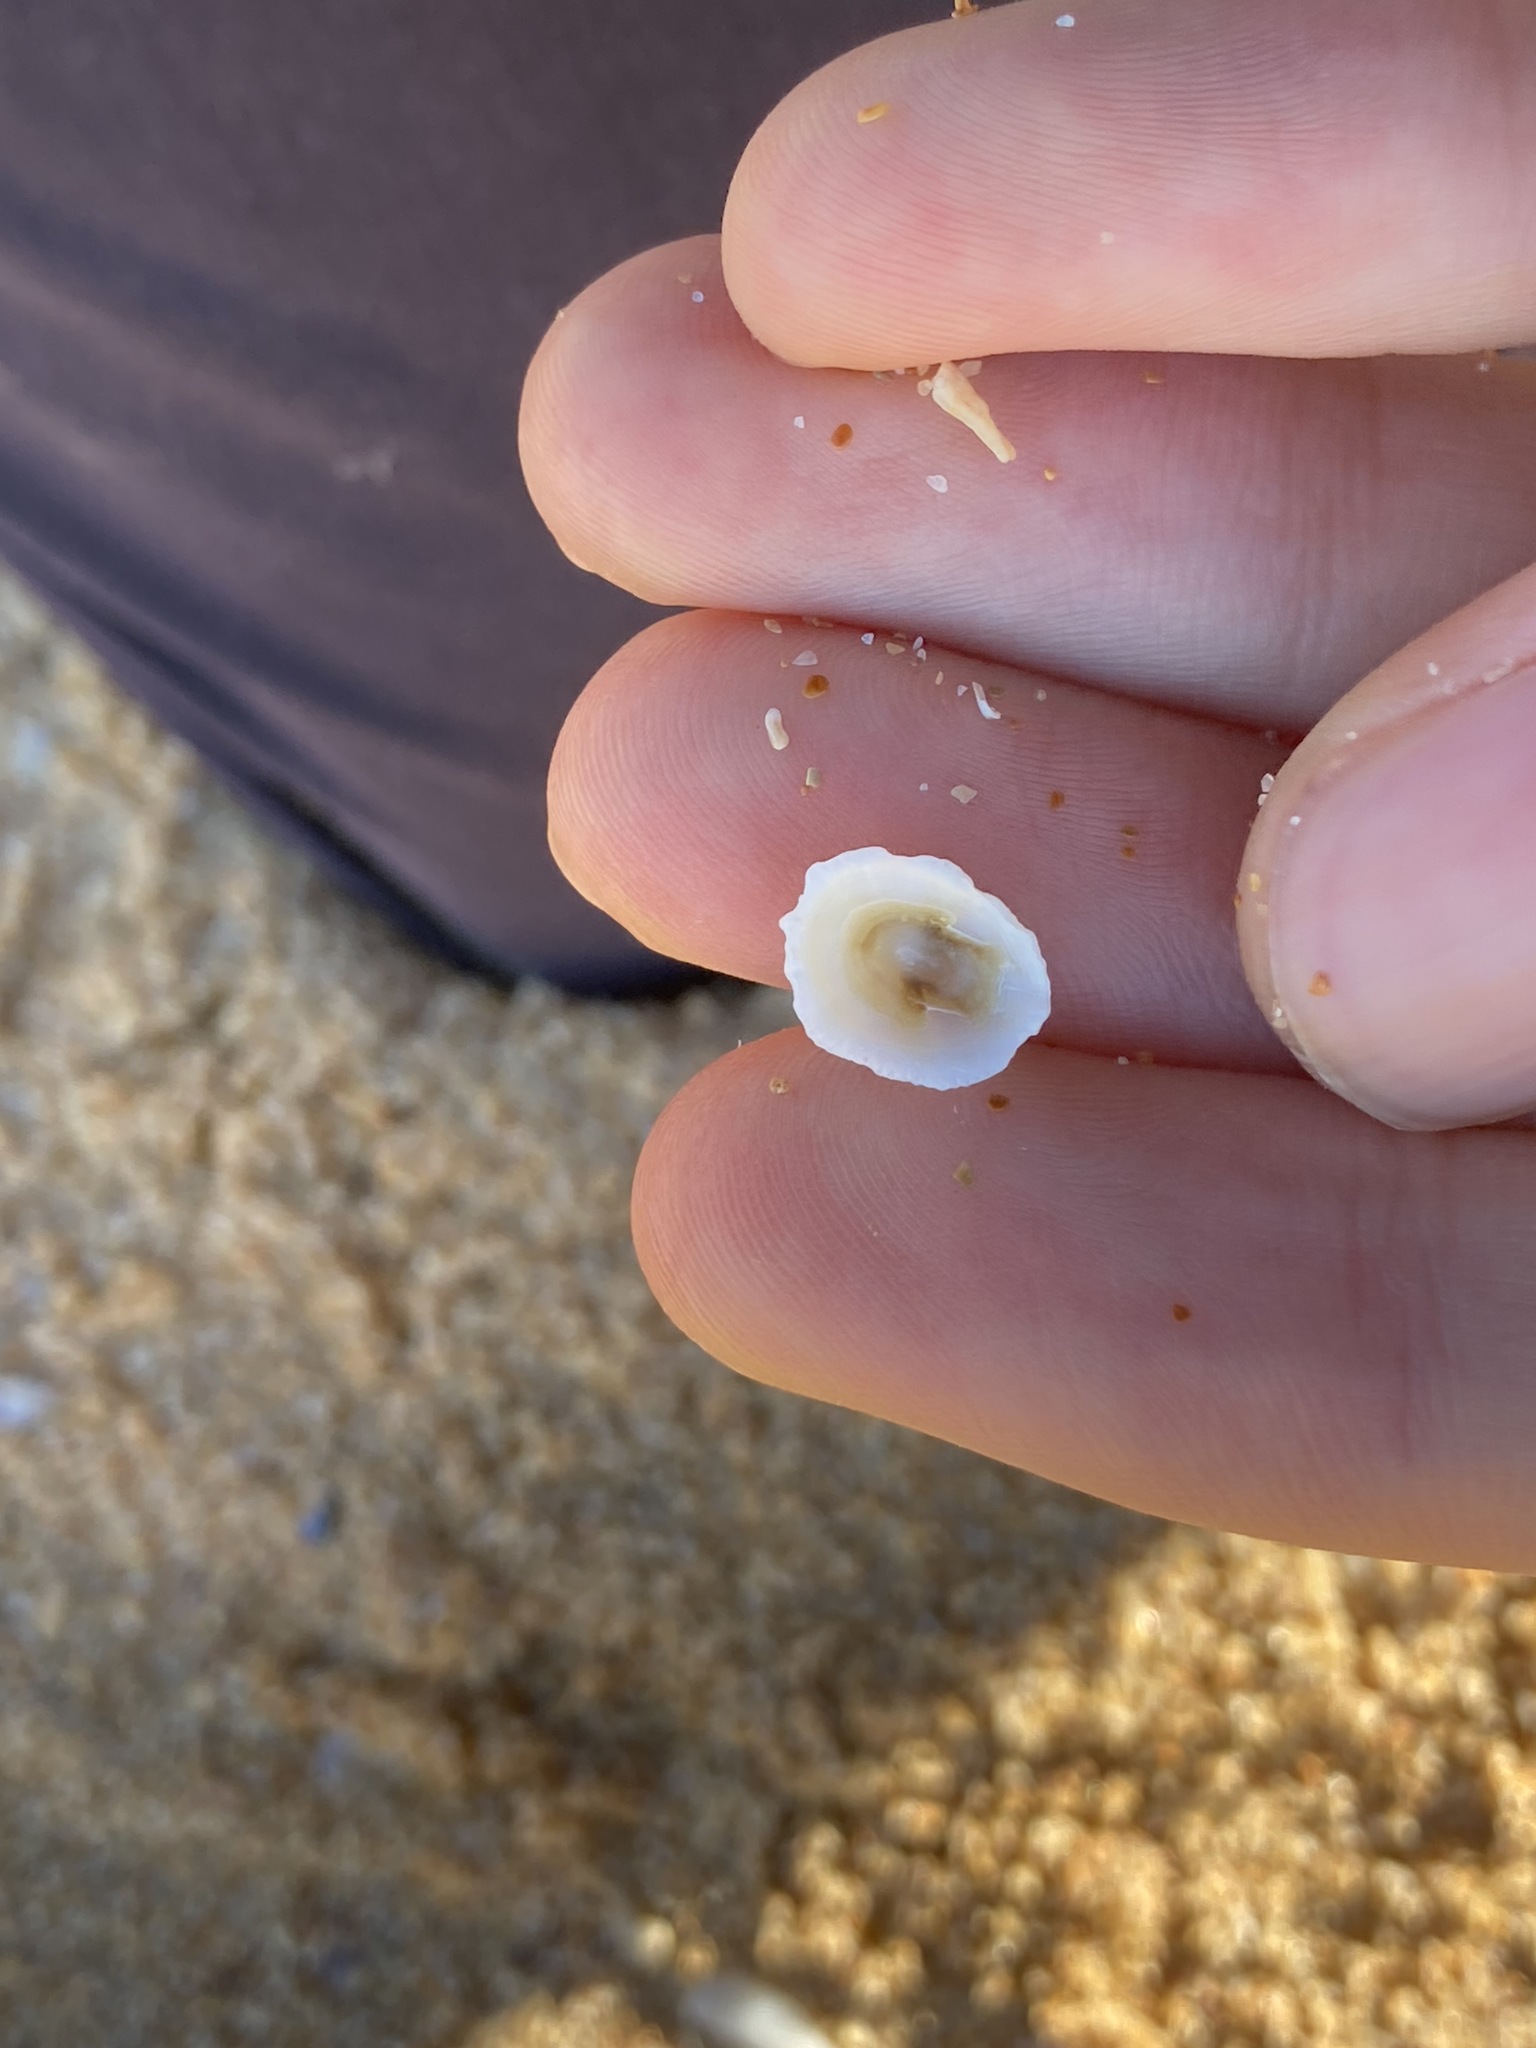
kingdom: Animalia
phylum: Mollusca
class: Gastropoda
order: Lepetellida
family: Fissurellidae
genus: Montfortula
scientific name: Montfortula rugosa
